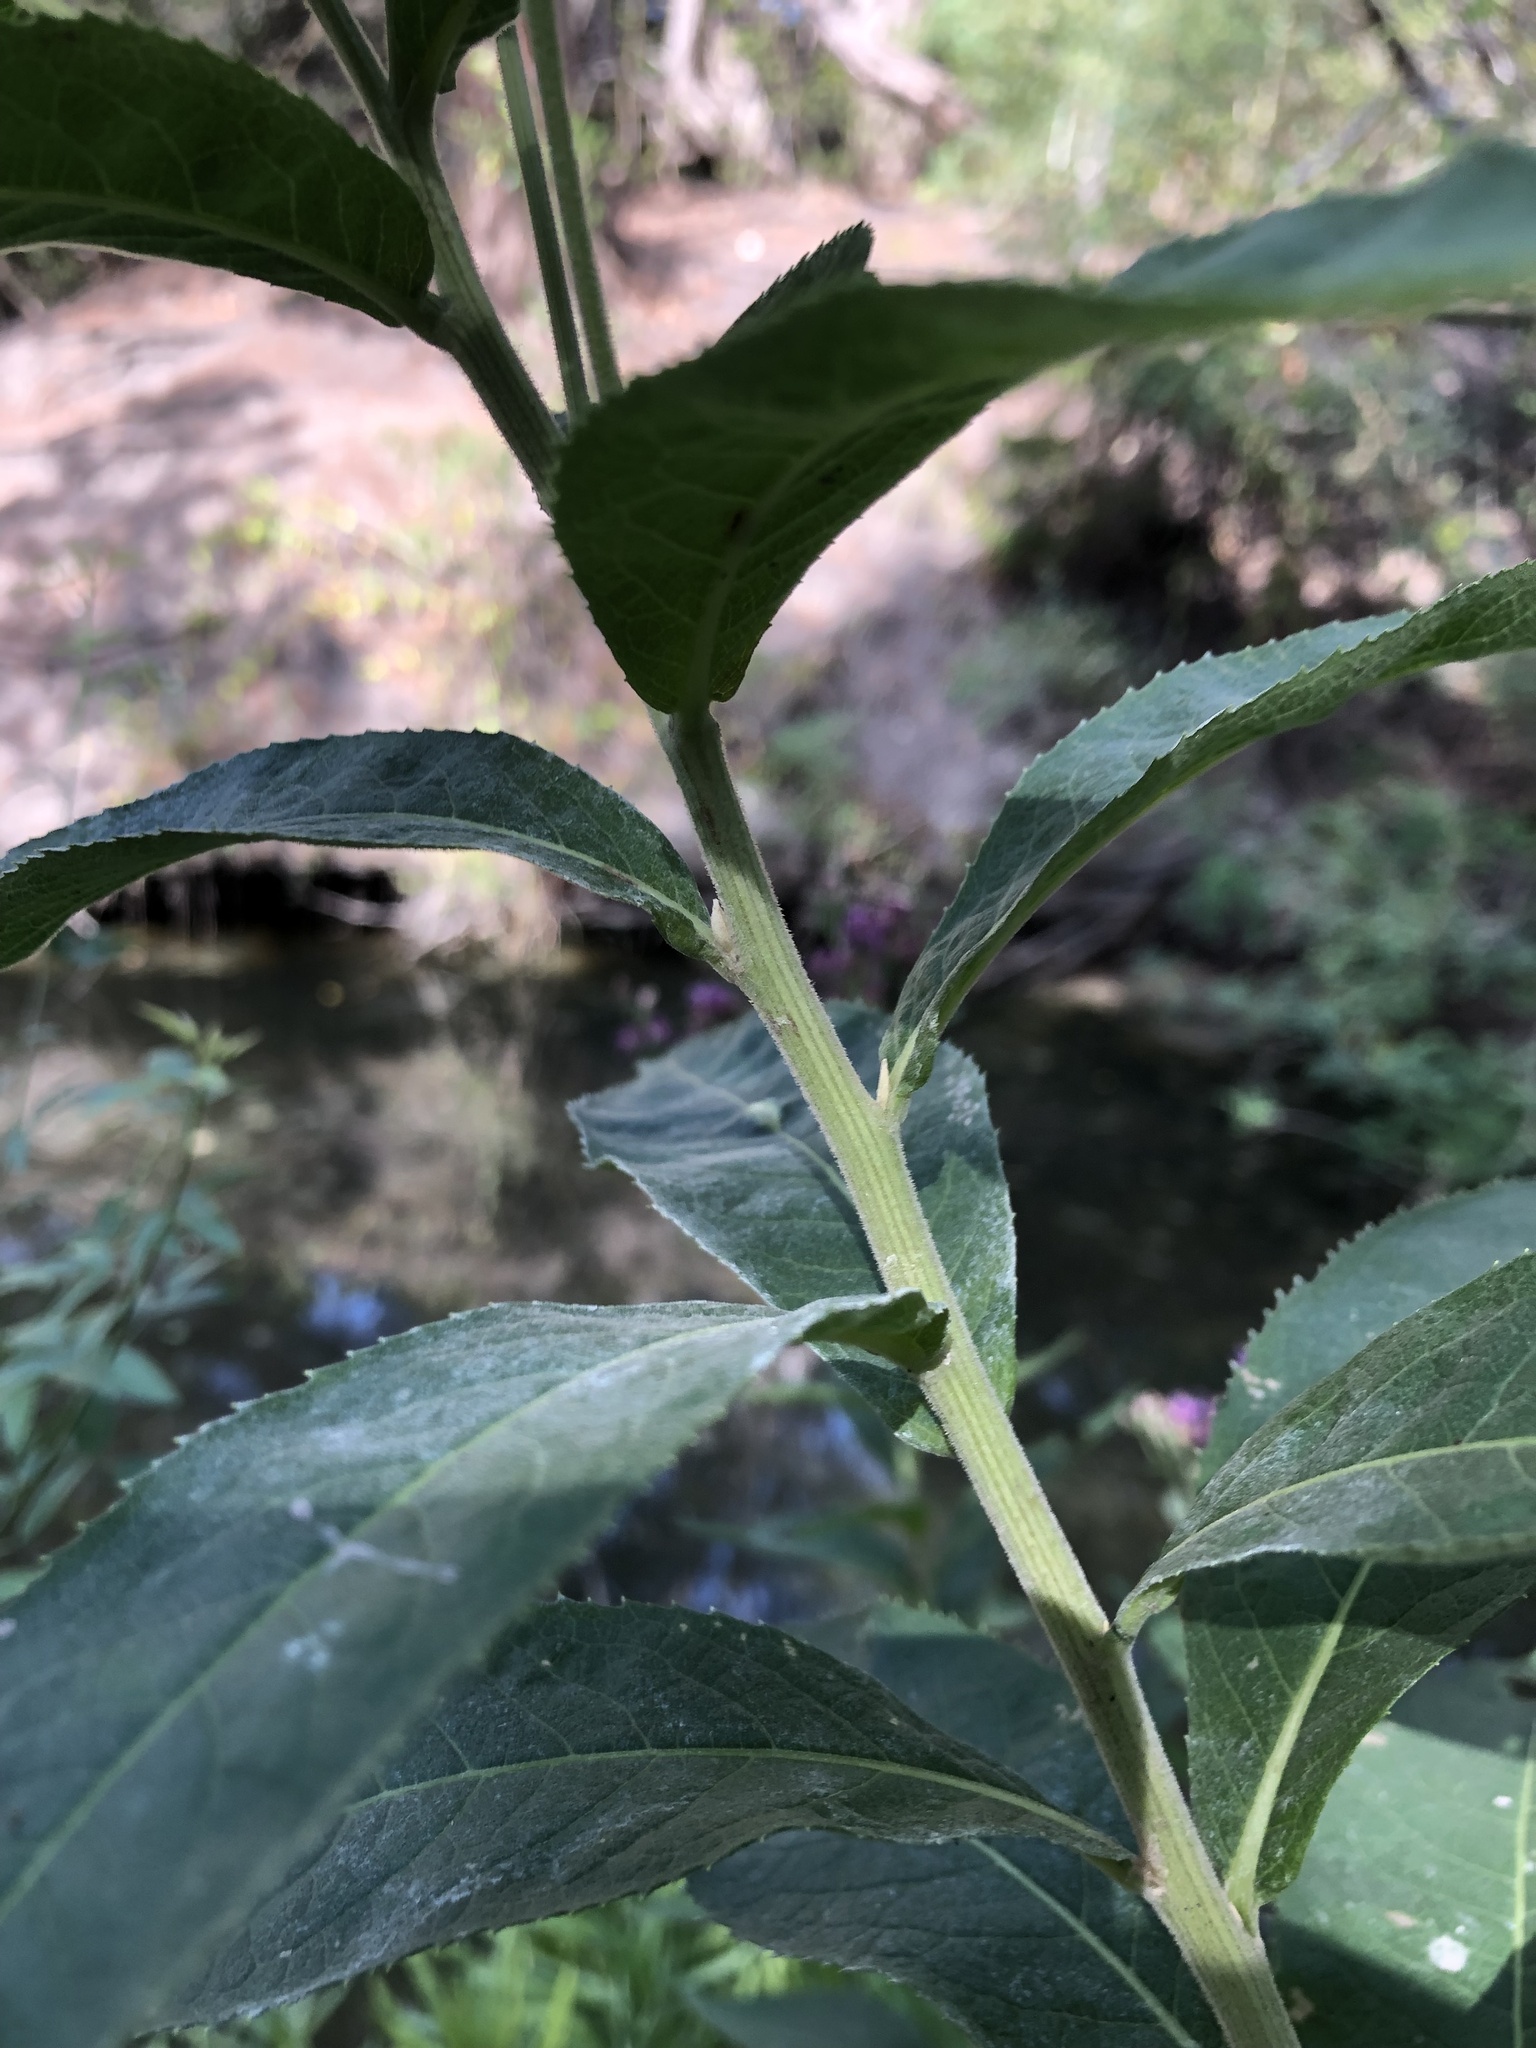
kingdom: Plantae
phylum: Tracheophyta
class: Magnoliopsida
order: Asterales
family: Asteraceae
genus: Vernonia
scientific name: Vernonia baldwinii
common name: Western ironweed
